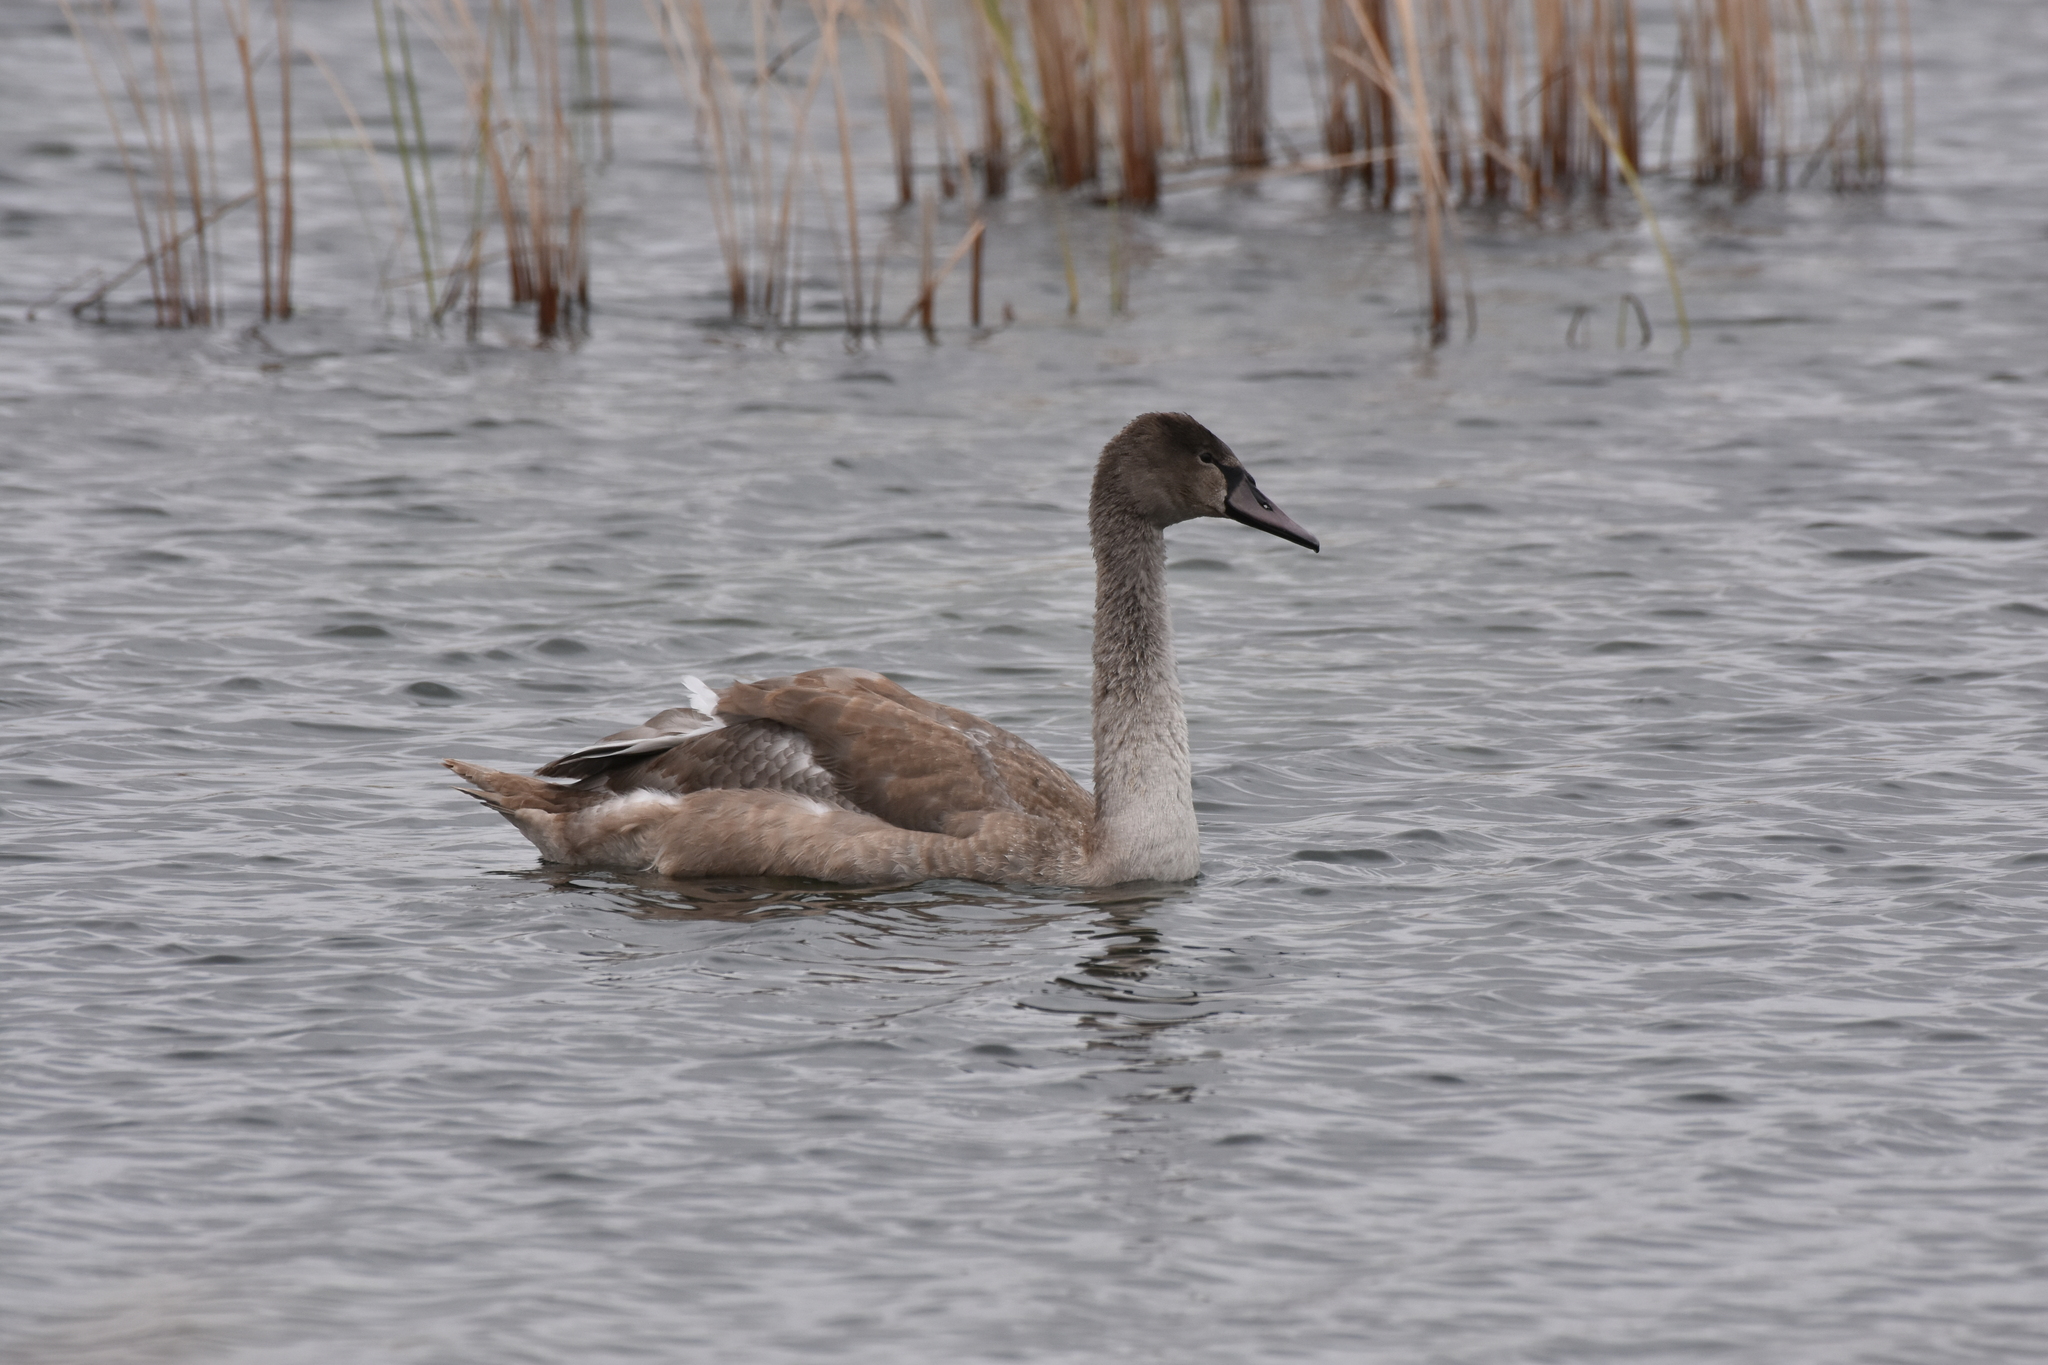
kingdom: Animalia
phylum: Chordata
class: Aves
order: Anseriformes
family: Anatidae
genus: Cygnus
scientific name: Cygnus olor
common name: Mute swan
